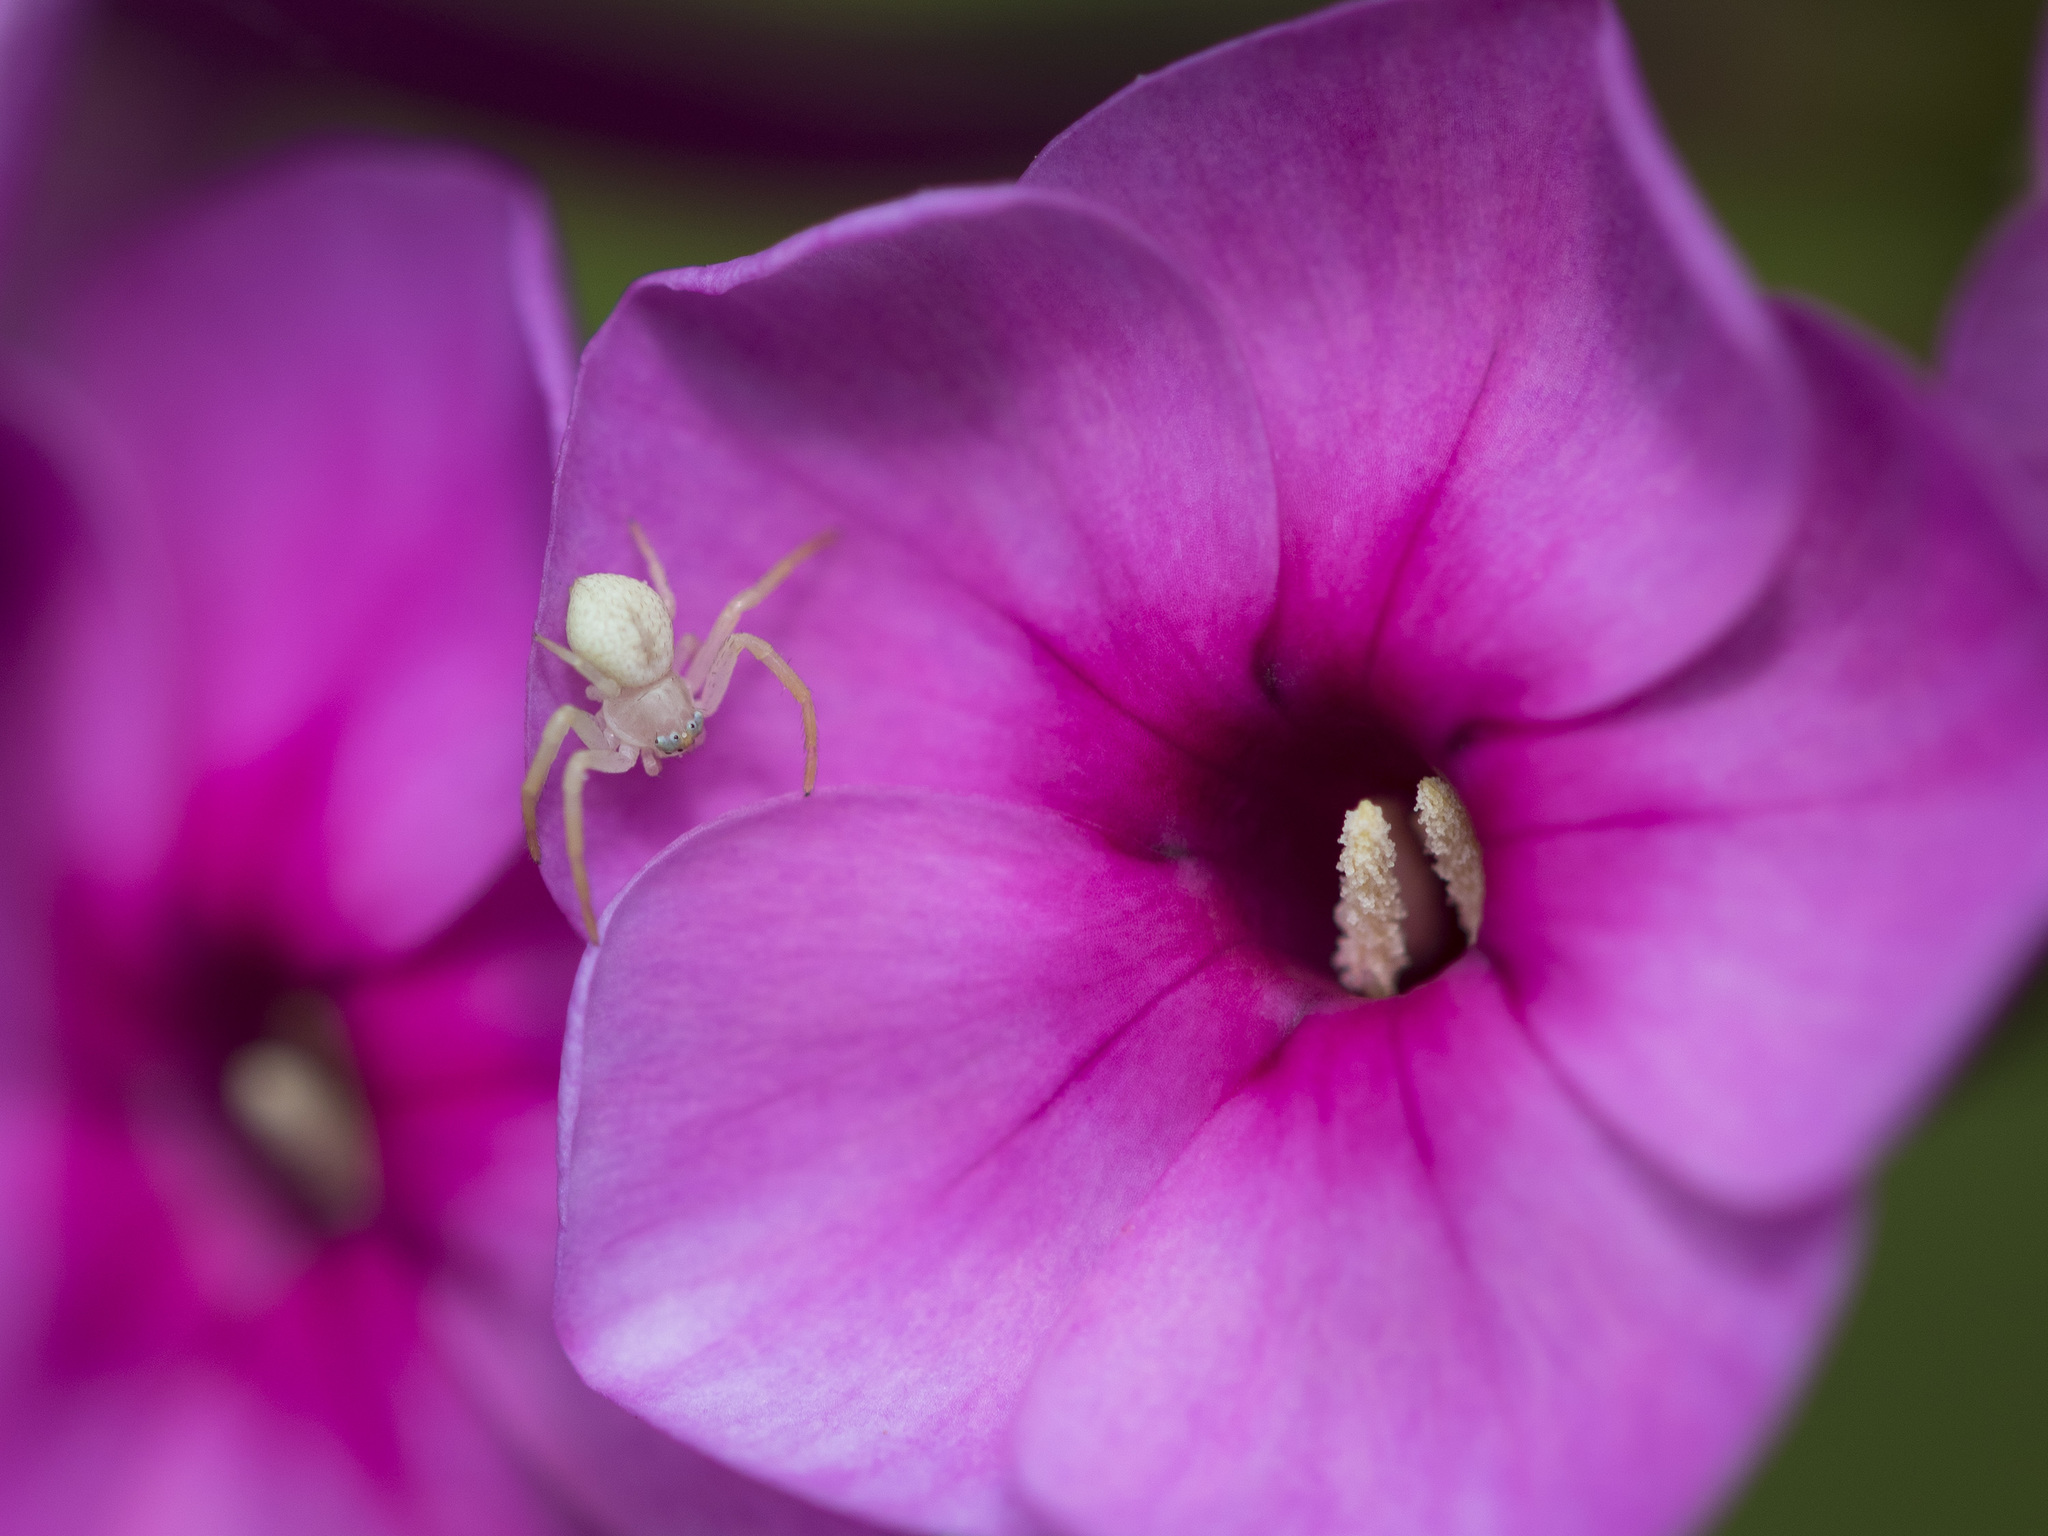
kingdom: Animalia
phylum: Arthropoda
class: Arachnida
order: Araneae
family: Thomisidae
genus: Misumena
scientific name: Misumena vatia
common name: Goldenrod crab spider
